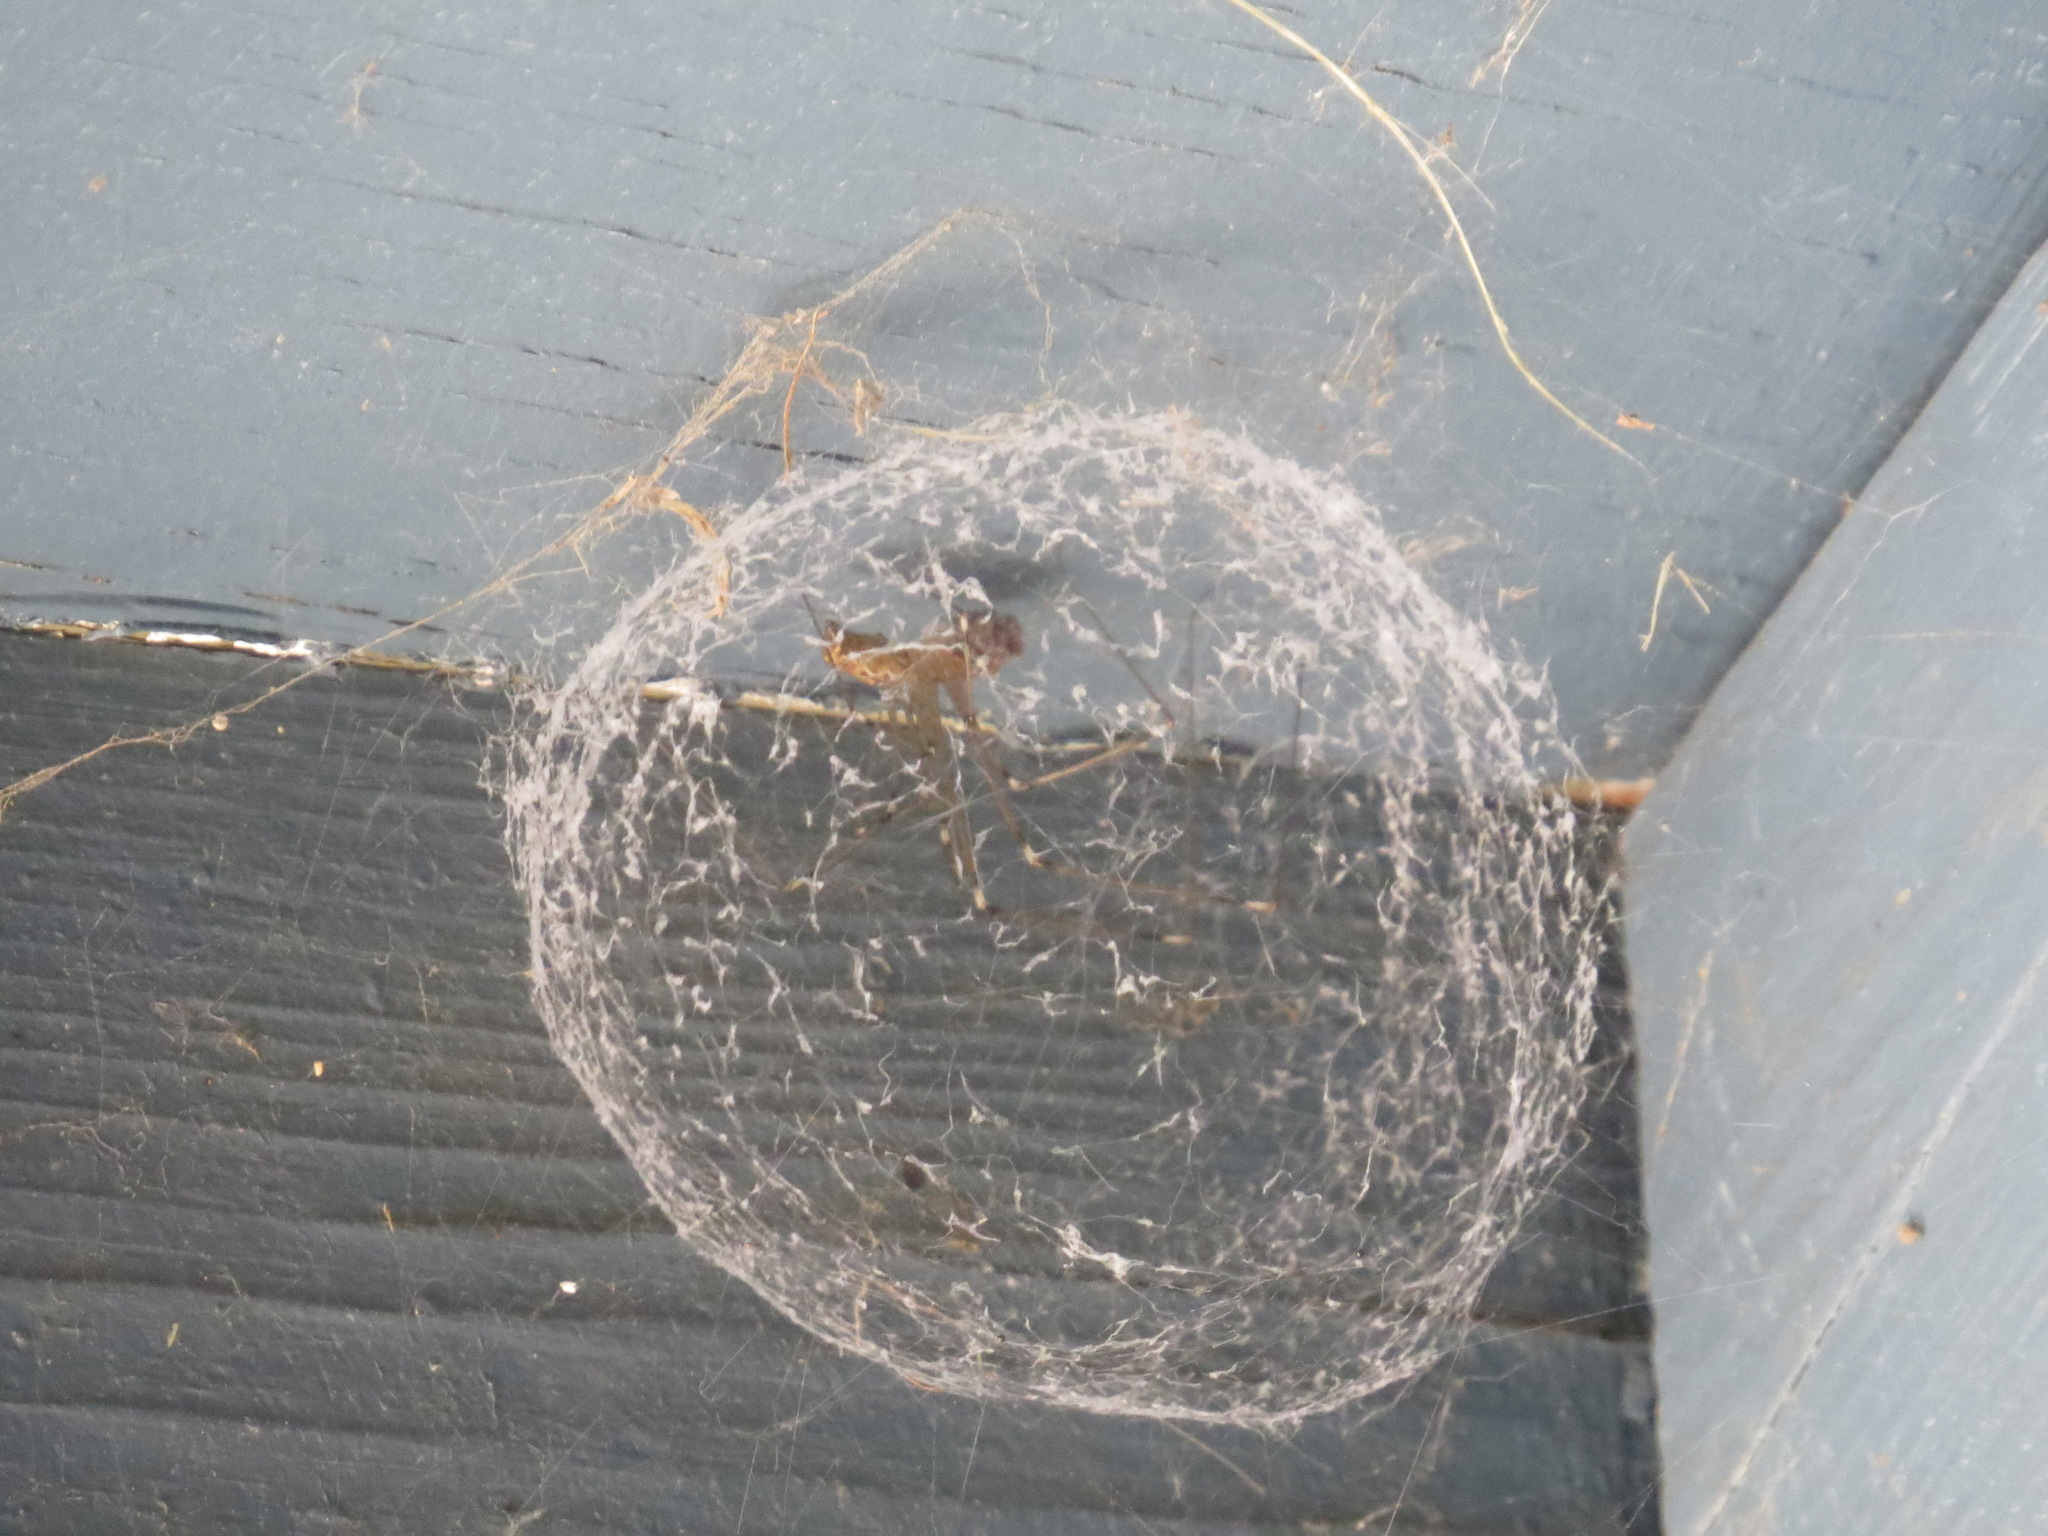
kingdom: Animalia
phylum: Arthropoda
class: Arachnida
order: Araneae
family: Pholcidae
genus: Holocnemus
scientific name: Holocnemus pluchei
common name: Marbled cellar spider
